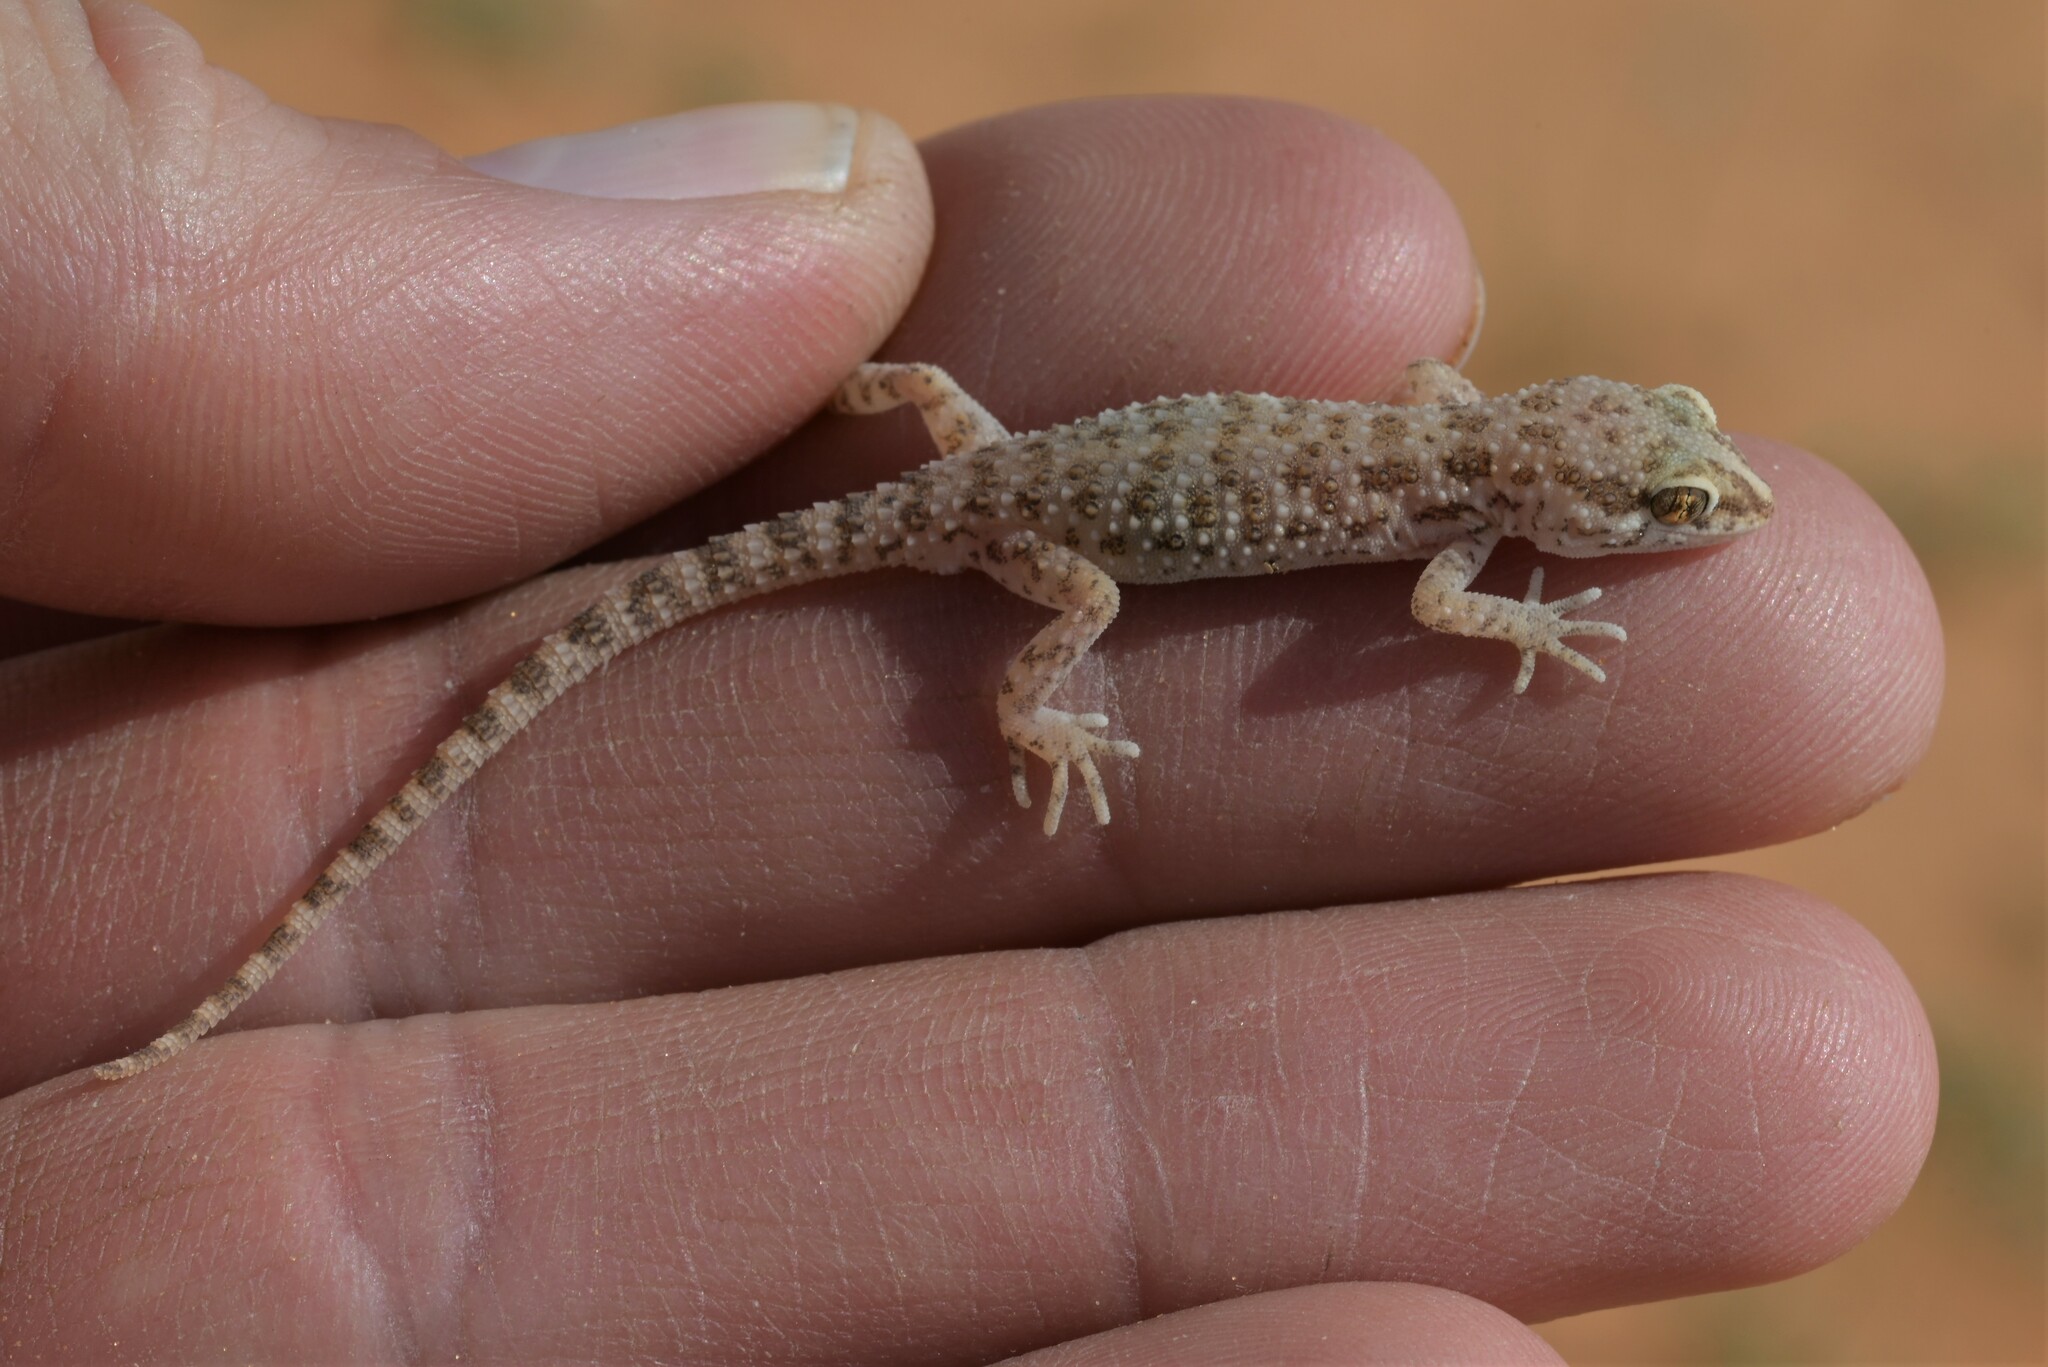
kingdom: Animalia
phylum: Chordata
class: Squamata
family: Gekkonidae
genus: Bunopus
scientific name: Bunopus tuberculatus
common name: Southern tuberculated gecko
